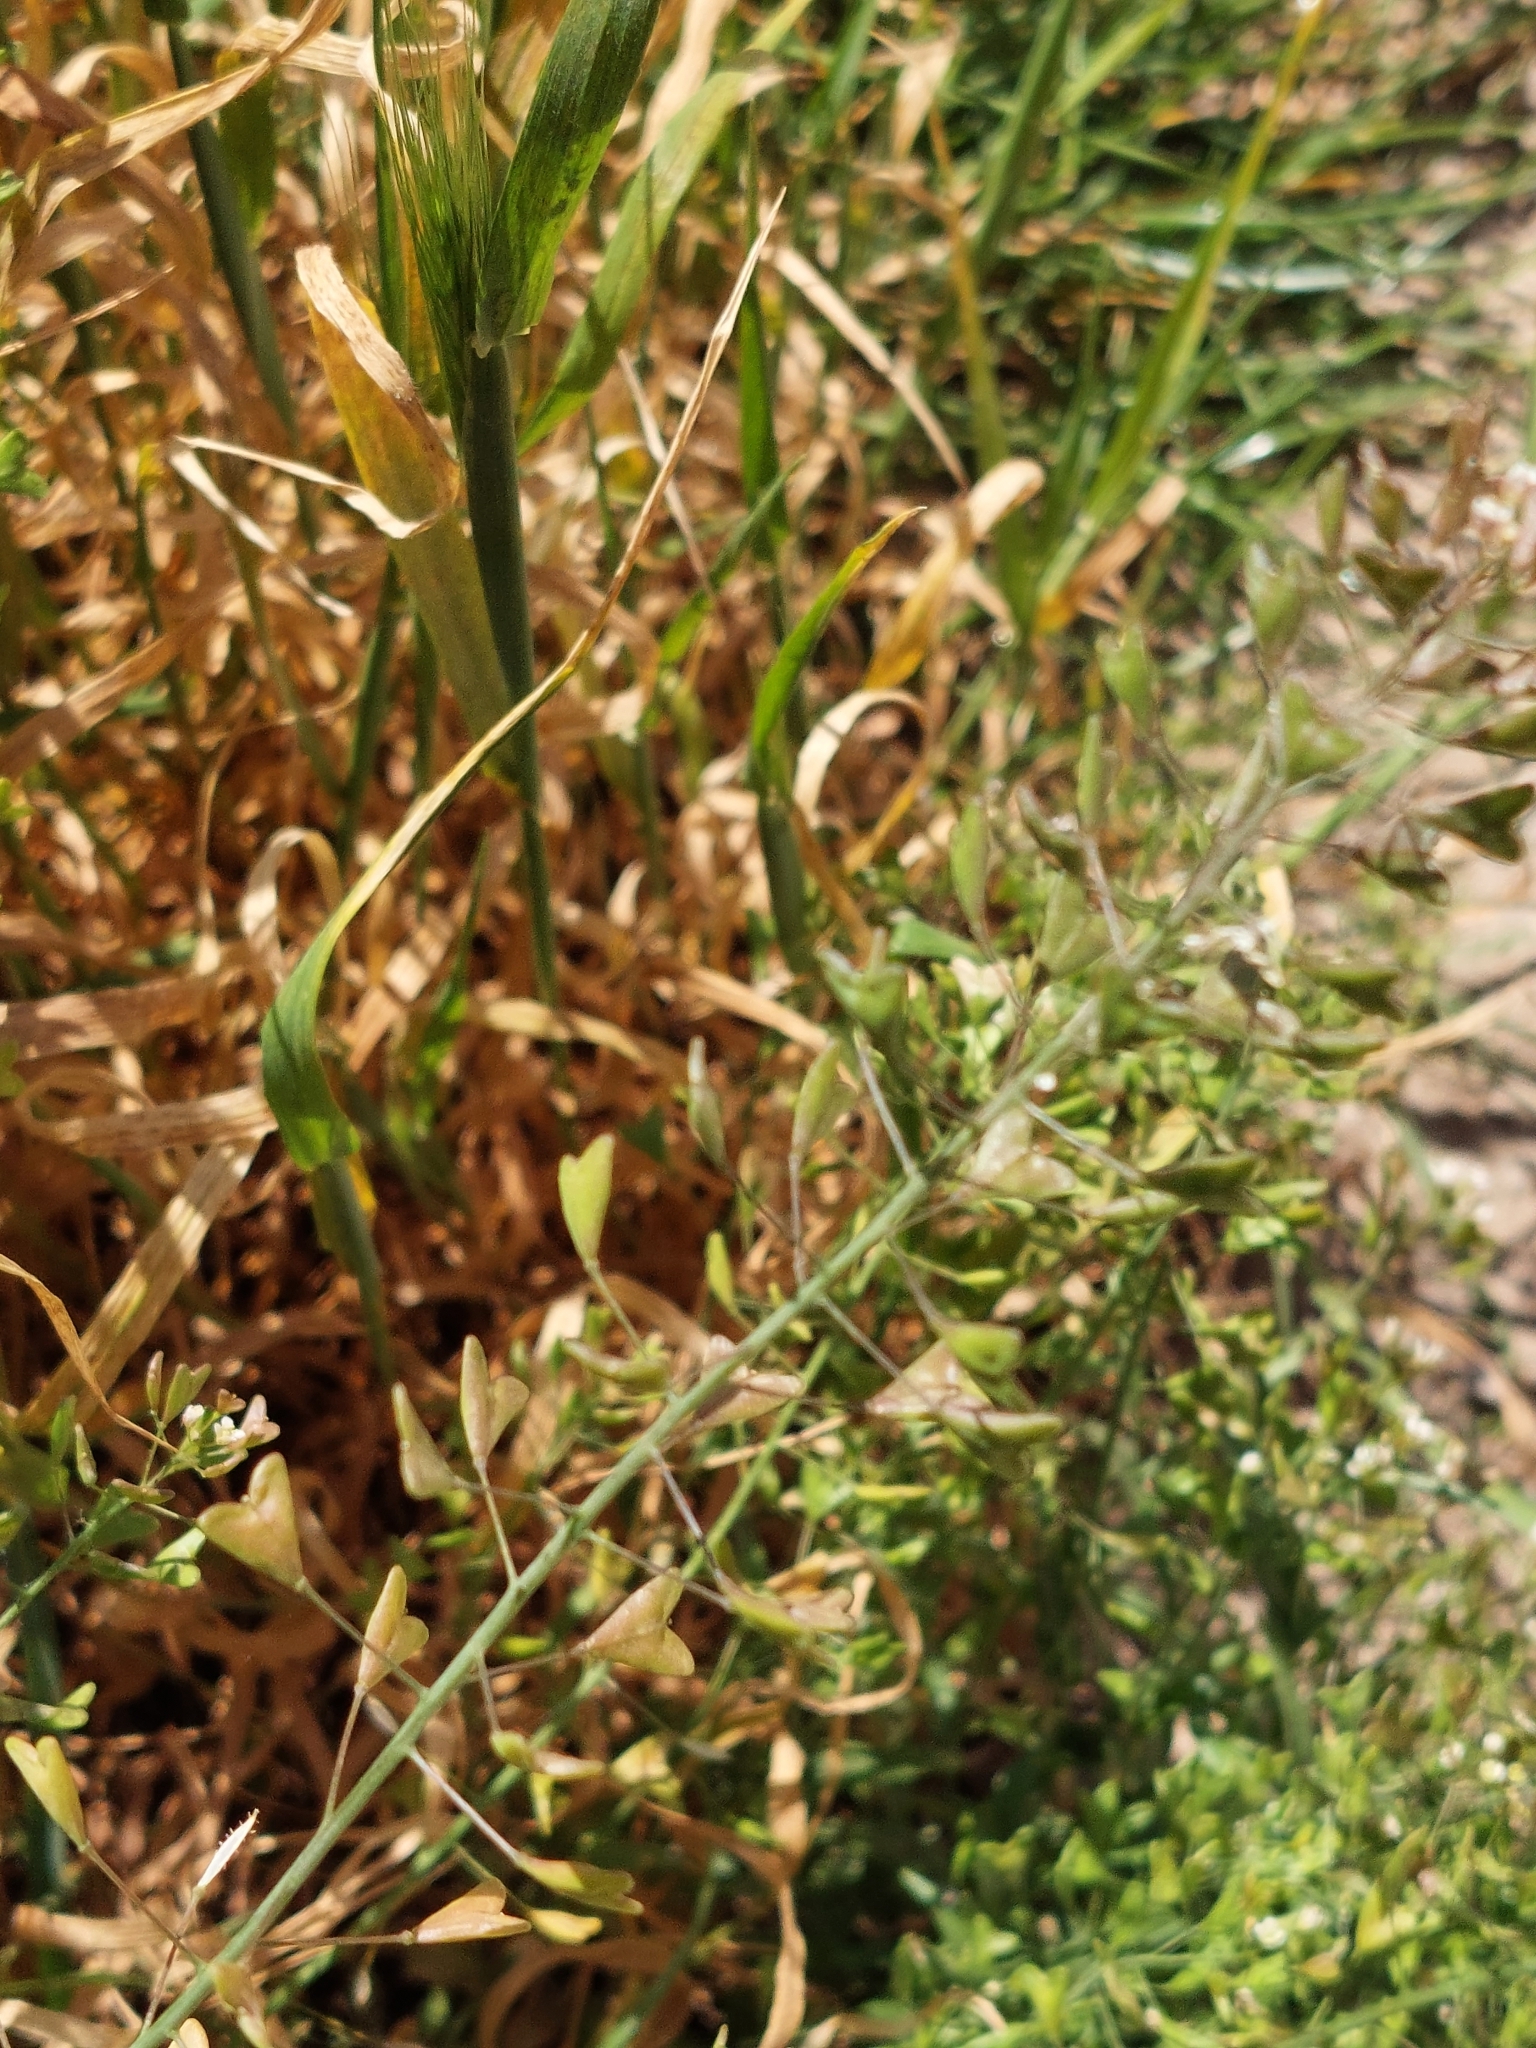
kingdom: Plantae
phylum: Tracheophyta
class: Magnoliopsida
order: Brassicales
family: Brassicaceae
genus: Capsella
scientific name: Capsella bursa-pastoris
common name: Shepherd's purse
